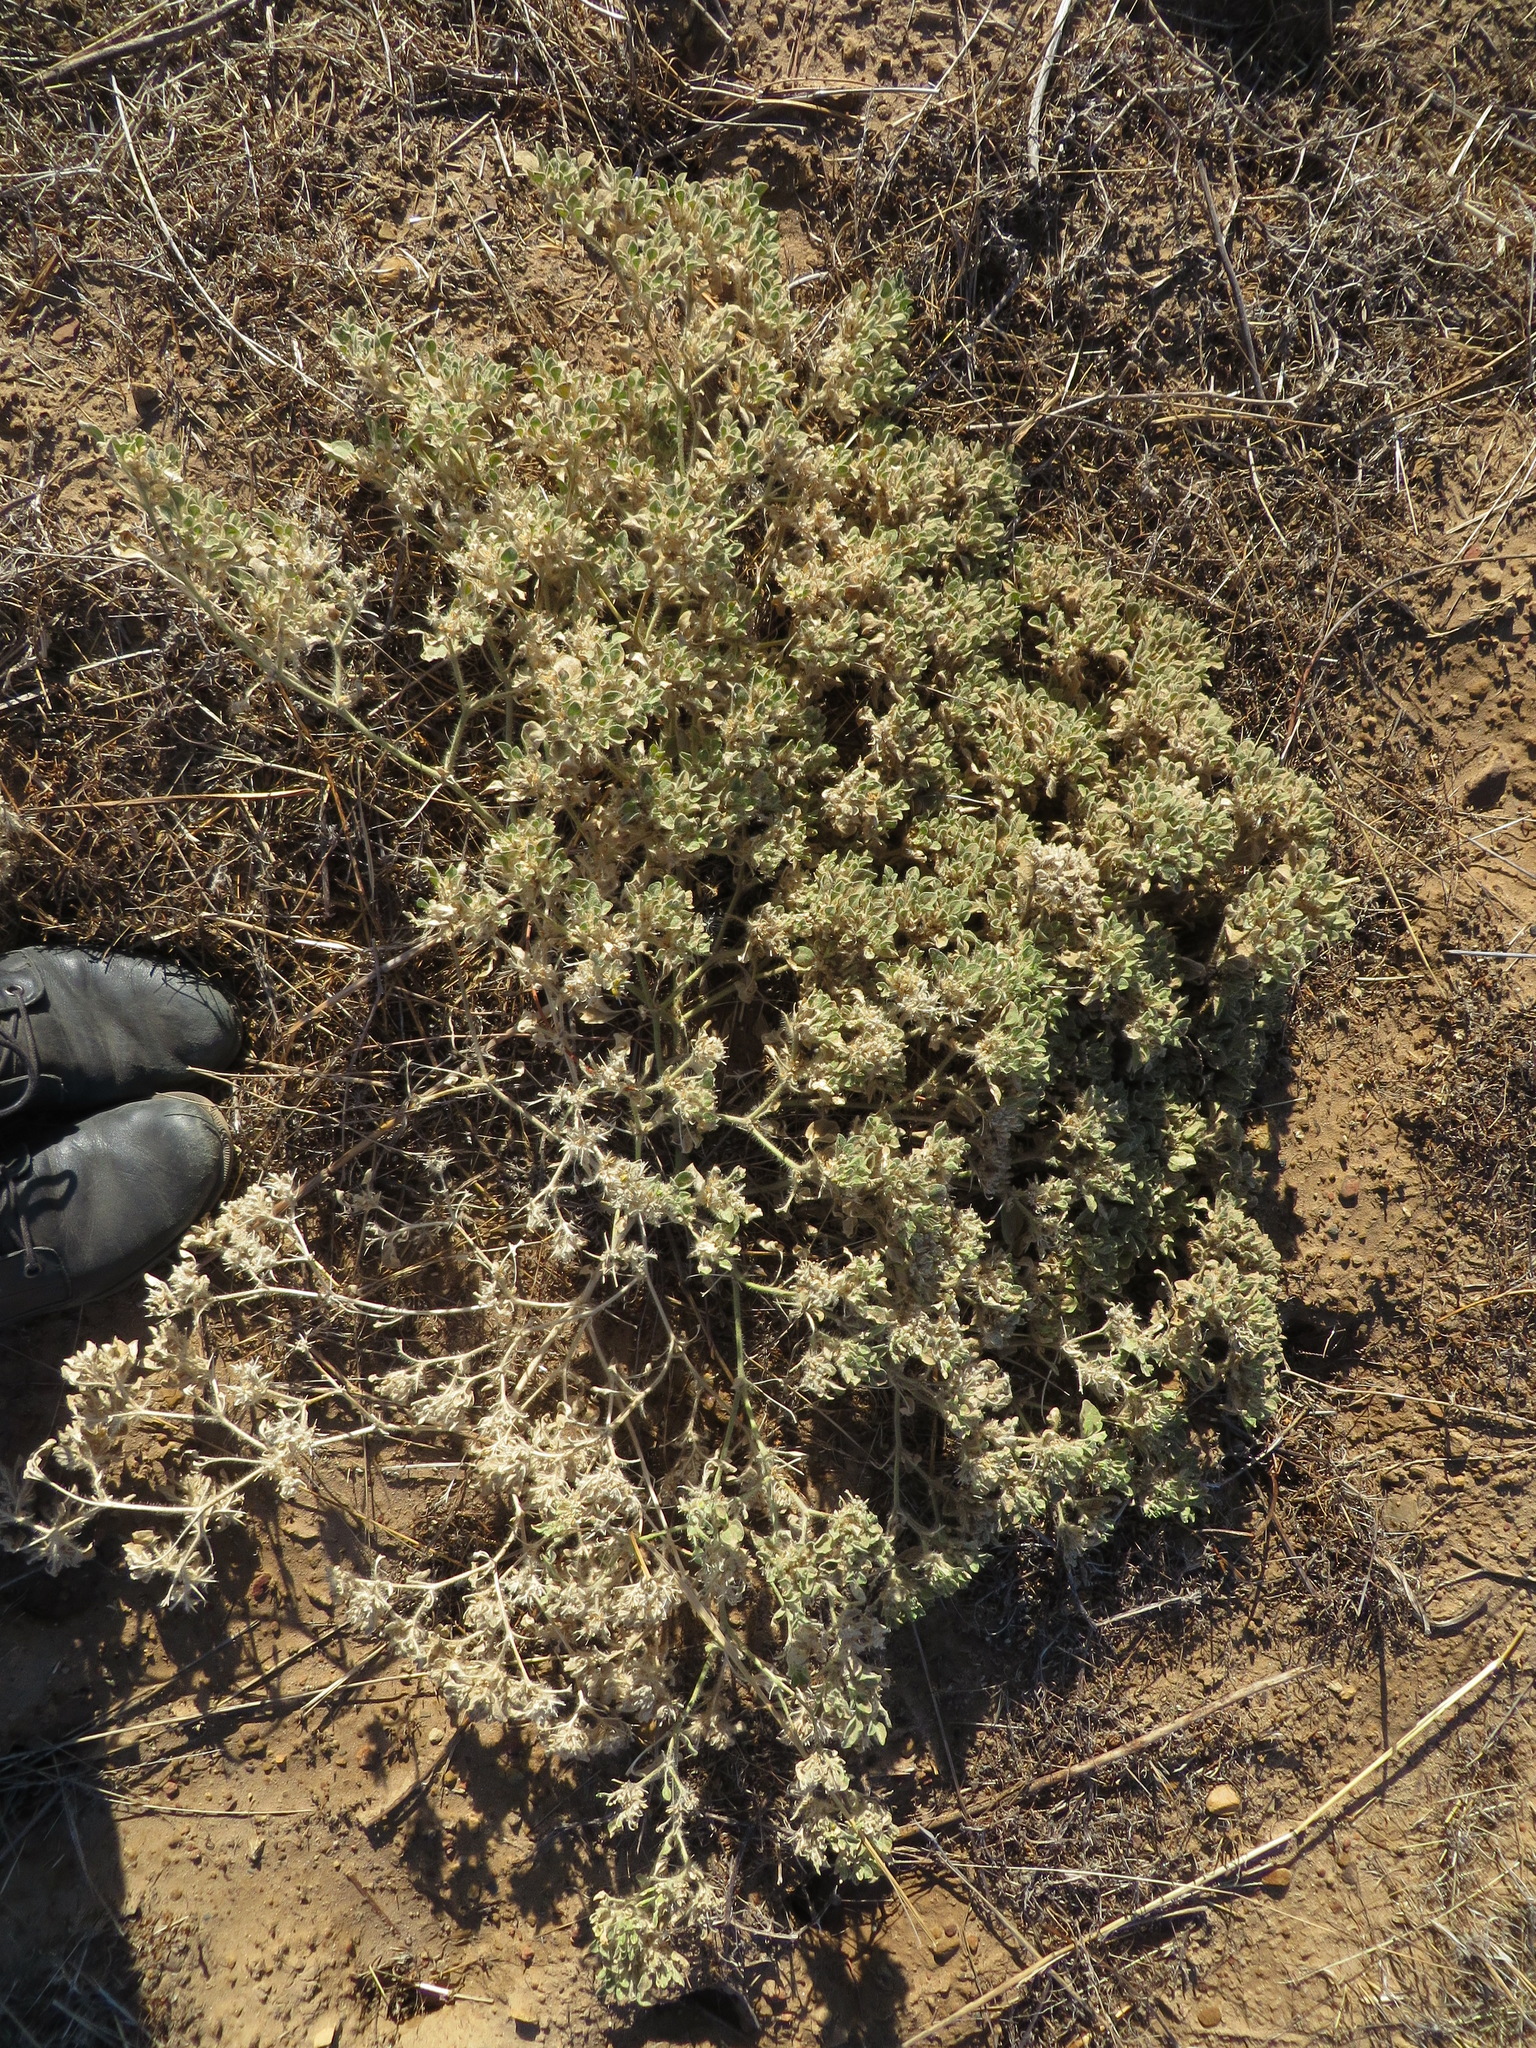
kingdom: Plantae
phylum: Tracheophyta
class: Magnoliopsida
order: Malpighiales
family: Euphorbiaceae
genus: Croton
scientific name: Croton setiger
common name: Dove weed
